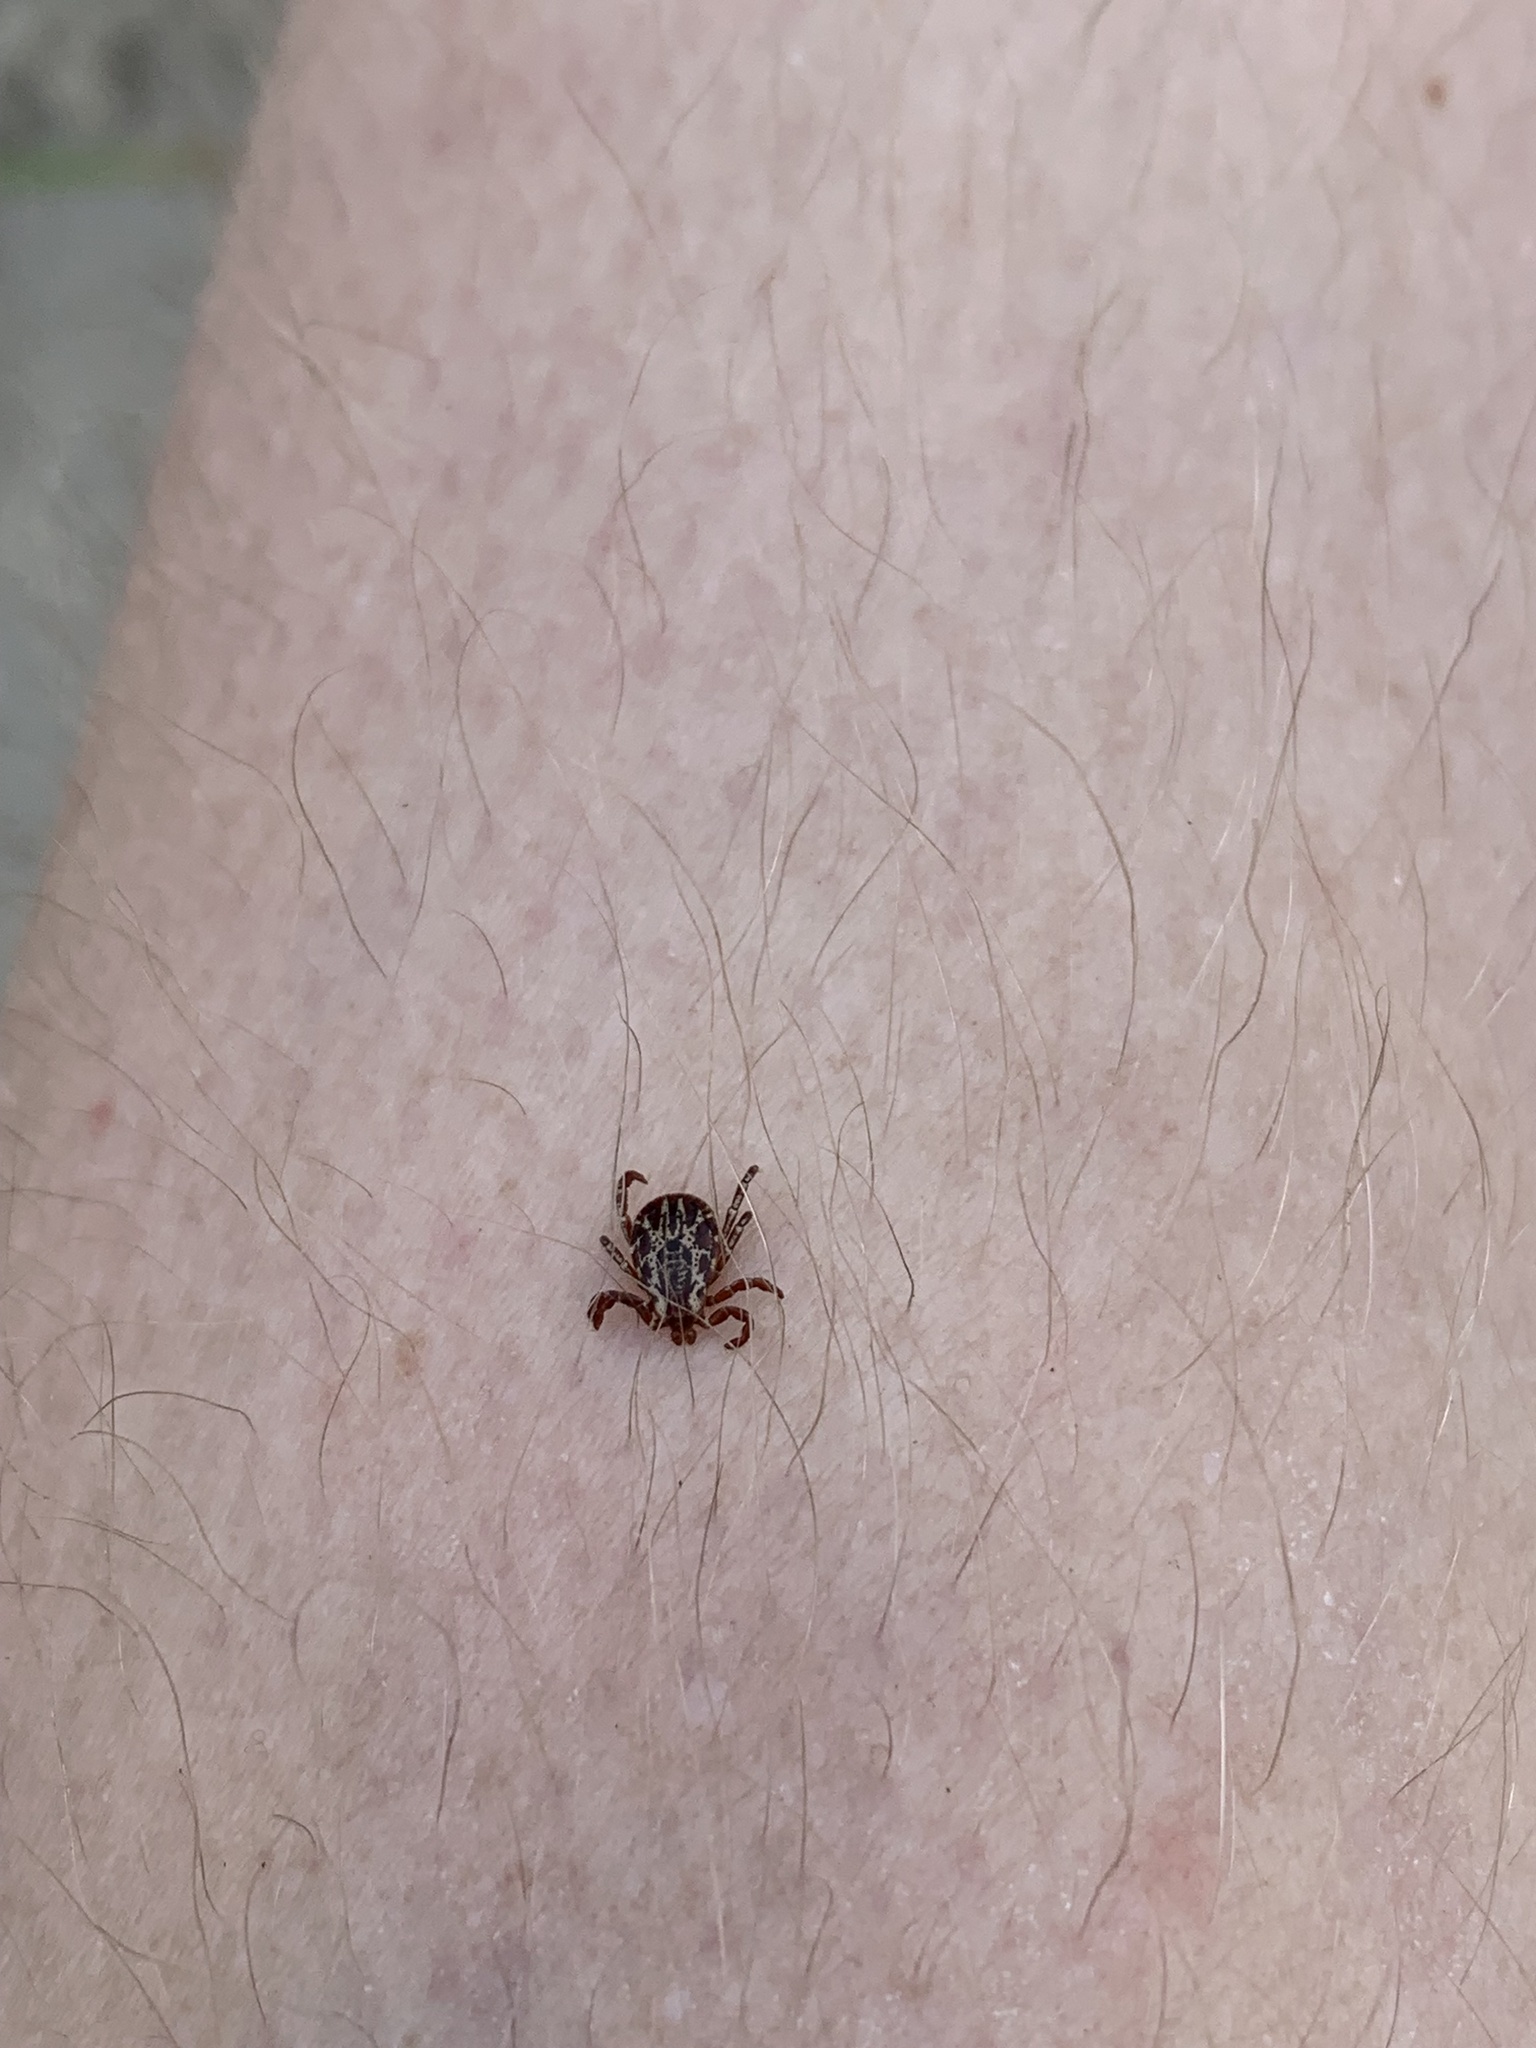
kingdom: Animalia
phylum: Arthropoda
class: Arachnida
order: Ixodida
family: Ixodidae
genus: Dermacentor
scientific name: Dermacentor variabilis
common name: American dog tick
